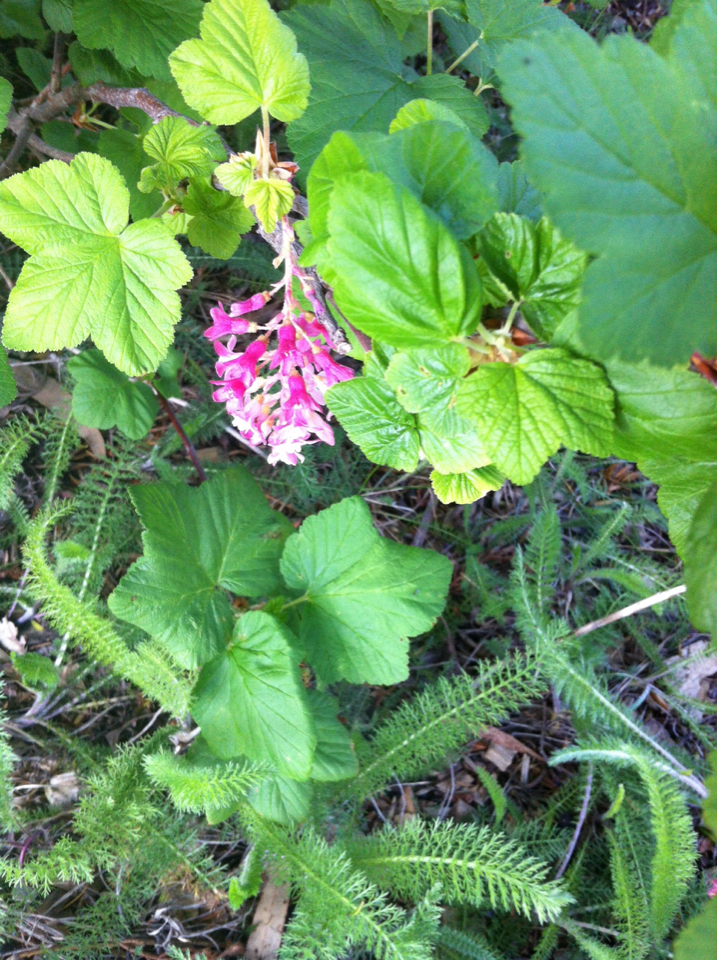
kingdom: Plantae
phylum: Tracheophyta
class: Magnoliopsida
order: Saxifragales
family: Grossulariaceae
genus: Ribes
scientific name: Ribes sanguineum
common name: Flowering currant
